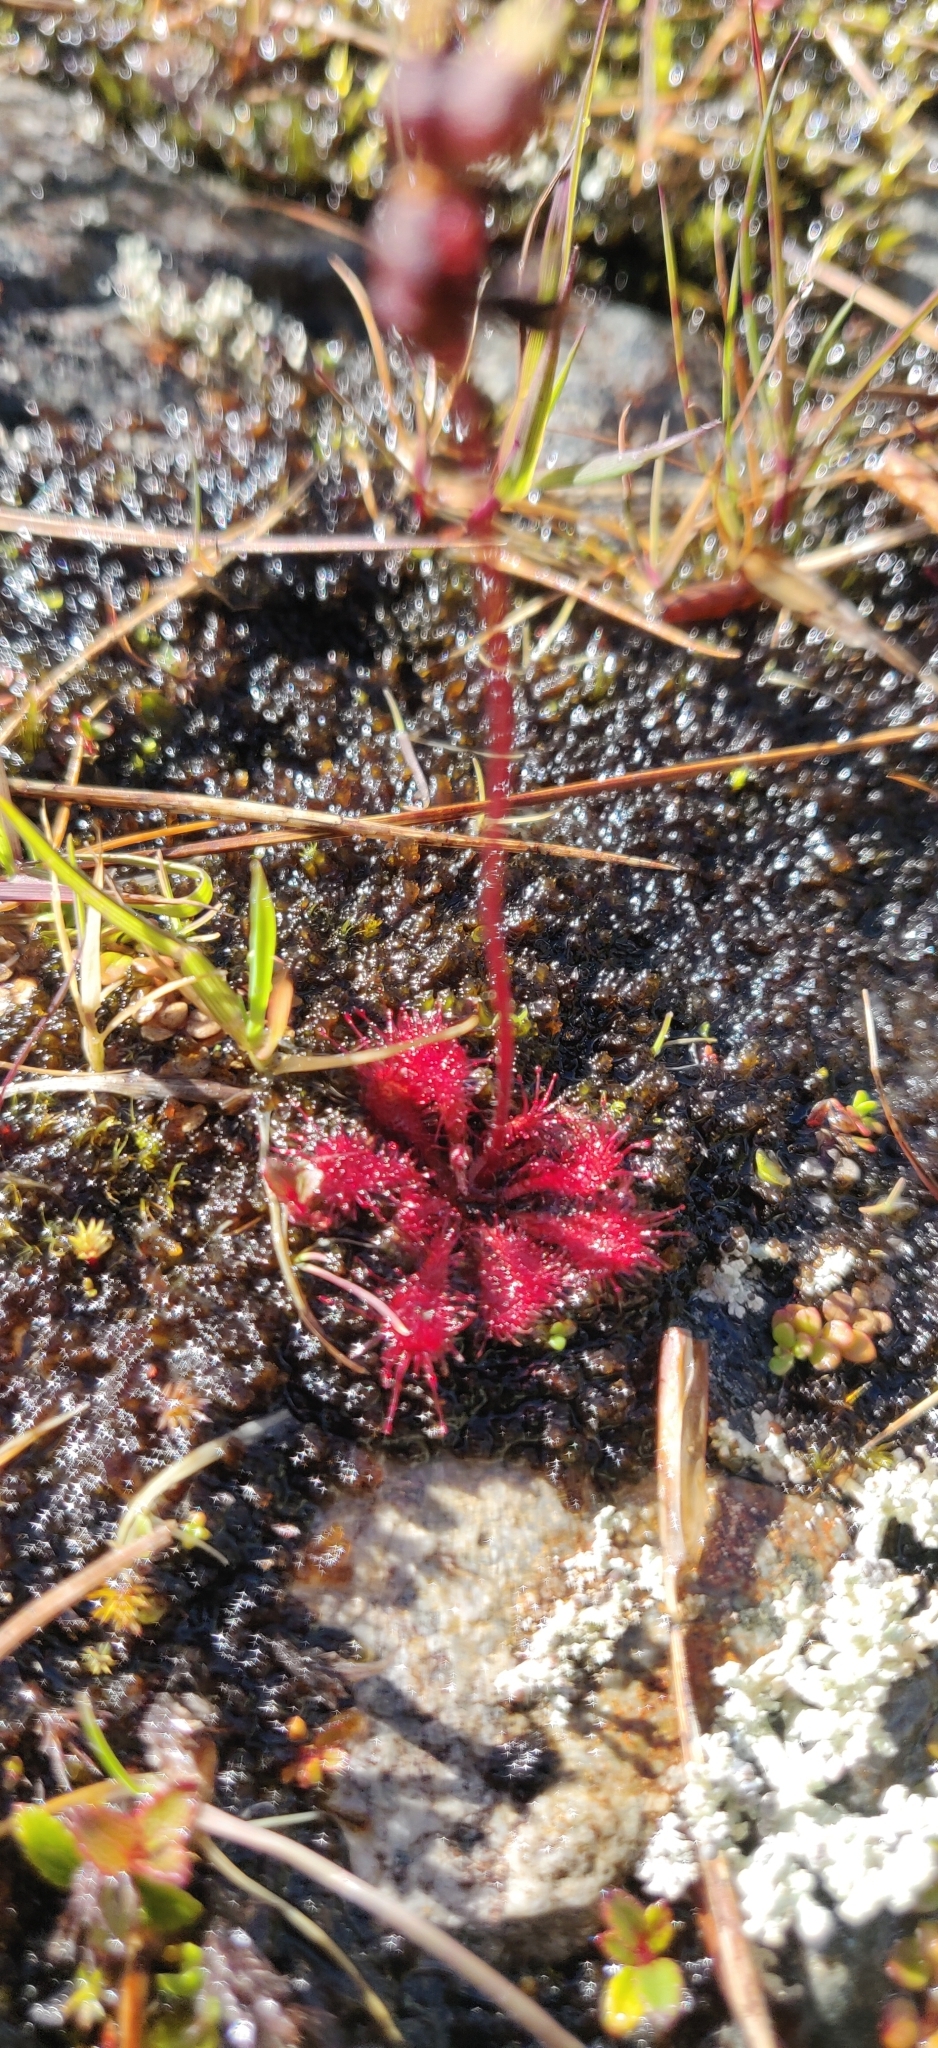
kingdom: Plantae
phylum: Tracheophyta
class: Magnoliopsida
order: Caryophyllales
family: Droseraceae
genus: Drosera
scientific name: Drosera spatulata
